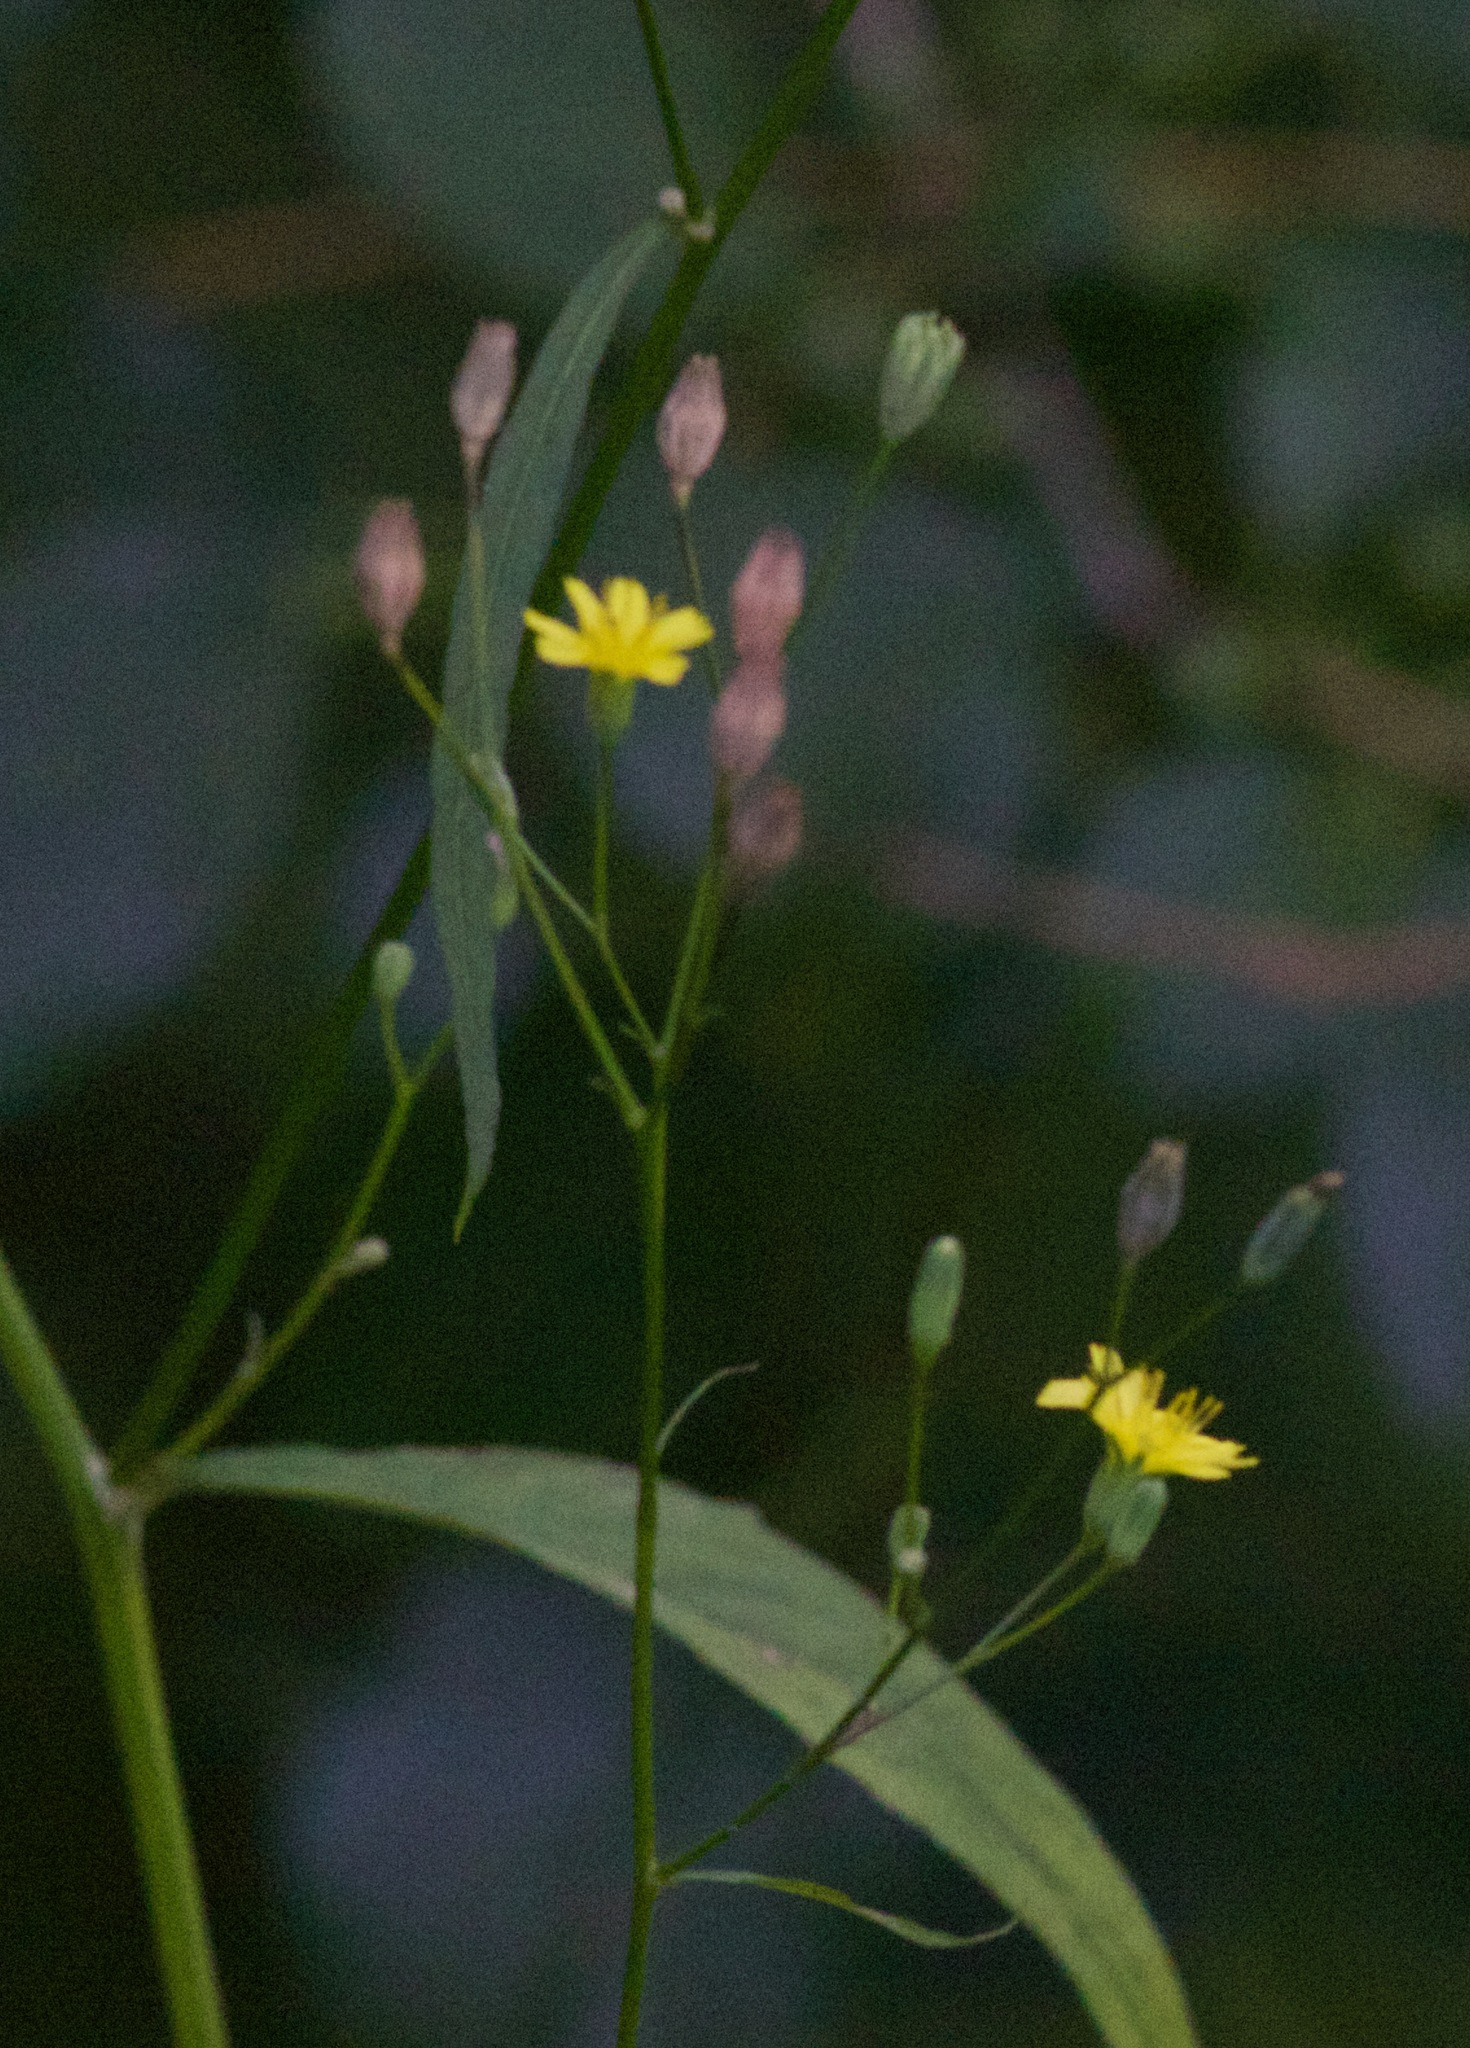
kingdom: Plantae
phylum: Tracheophyta
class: Magnoliopsida
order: Asterales
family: Asteraceae
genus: Lapsana
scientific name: Lapsana communis
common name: Nipplewort
